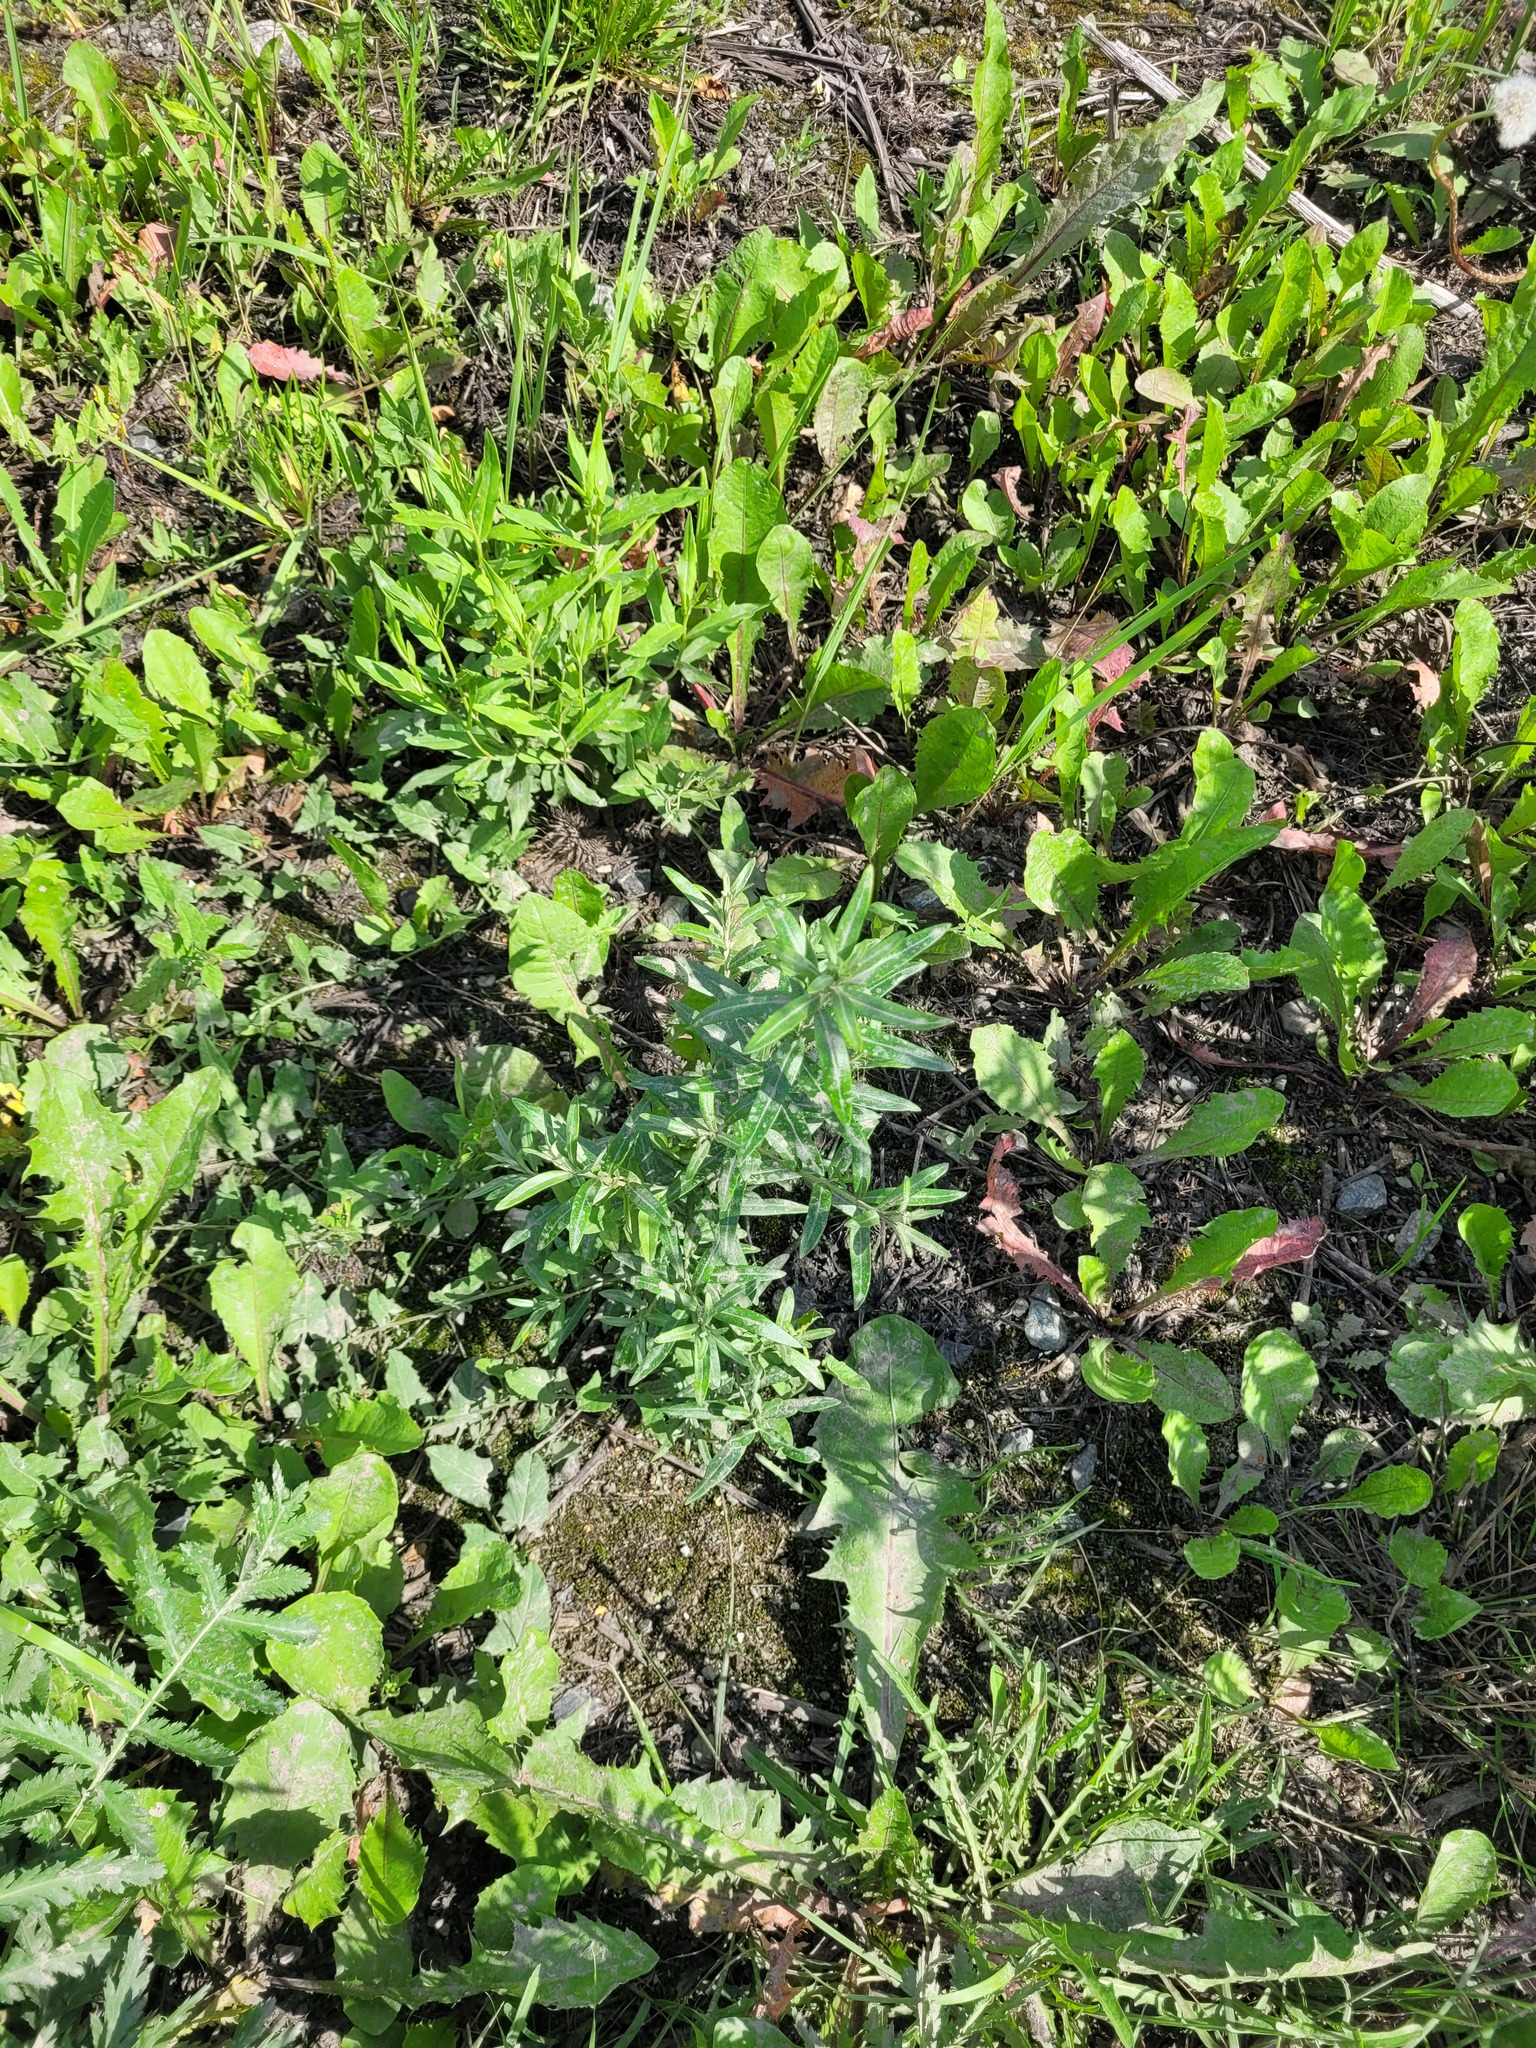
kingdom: Plantae
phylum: Tracheophyta
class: Magnoliopsida
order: Rosales
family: Elaeagnaceae
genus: Hippophae
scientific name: Hippophae rhamnoides
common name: Sea-buckthorn
